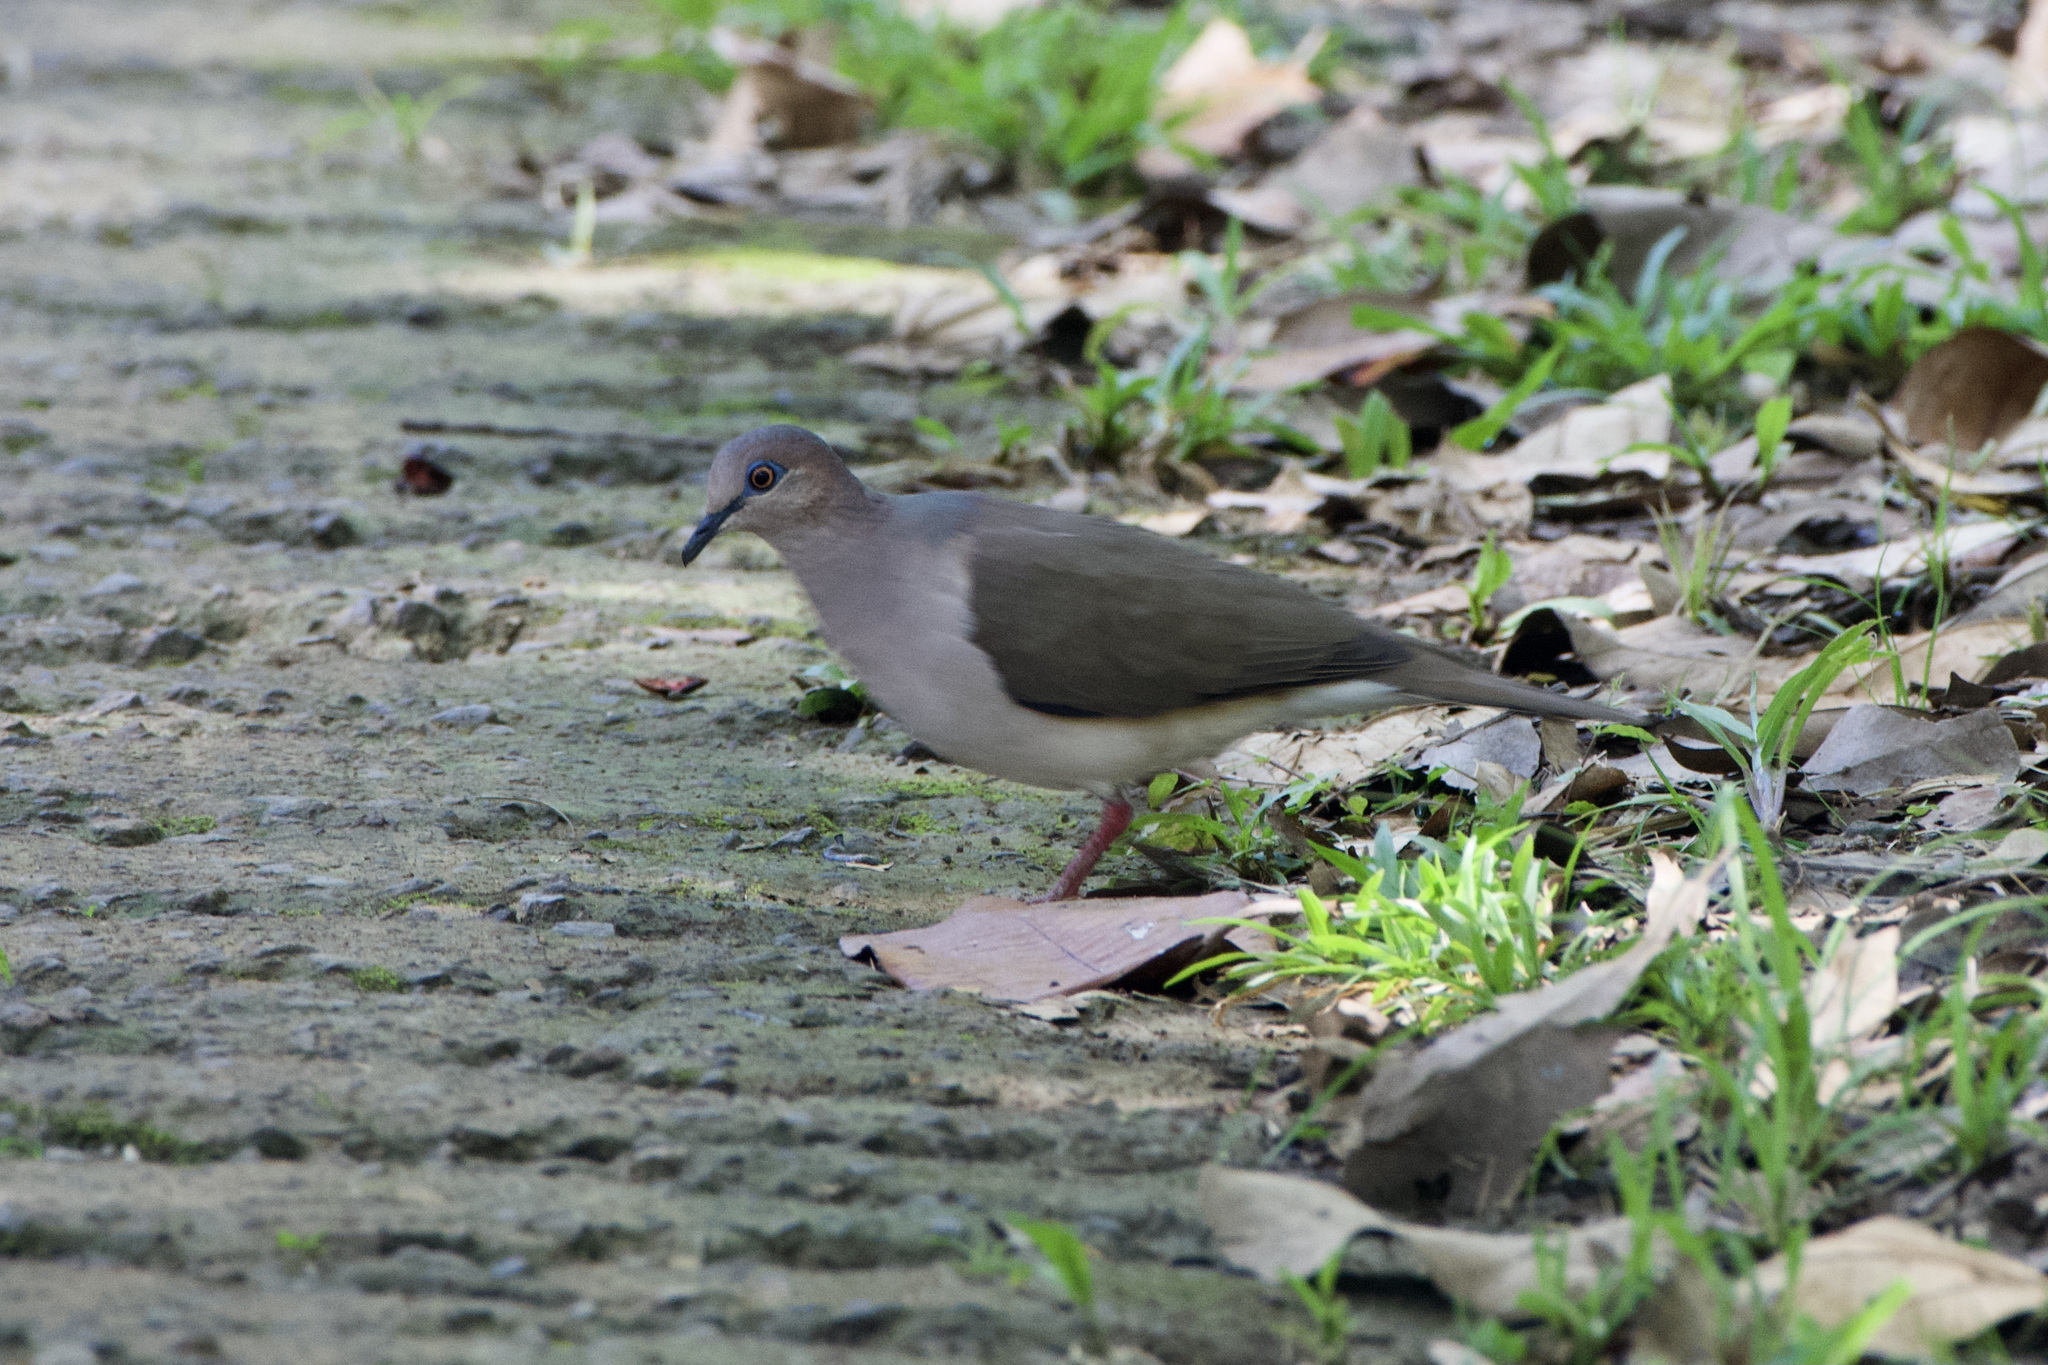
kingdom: Animalia
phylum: Chordata
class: Aves
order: Columbiformes
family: Columbidae
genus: Leptotila
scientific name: Leptotila verreauxi
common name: White-tipped dove
